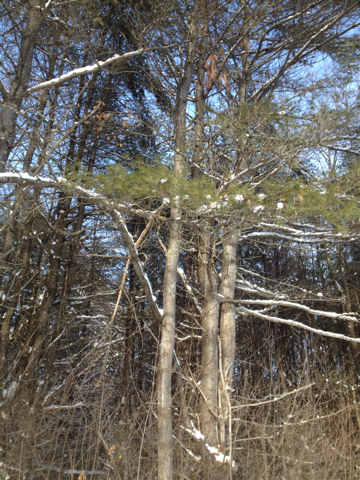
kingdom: Plantae
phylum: Tracheophyta
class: Pinopsida
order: Pinales
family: Pinaceae
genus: Pinus
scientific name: Pinus strobus
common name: Weymouth pine
